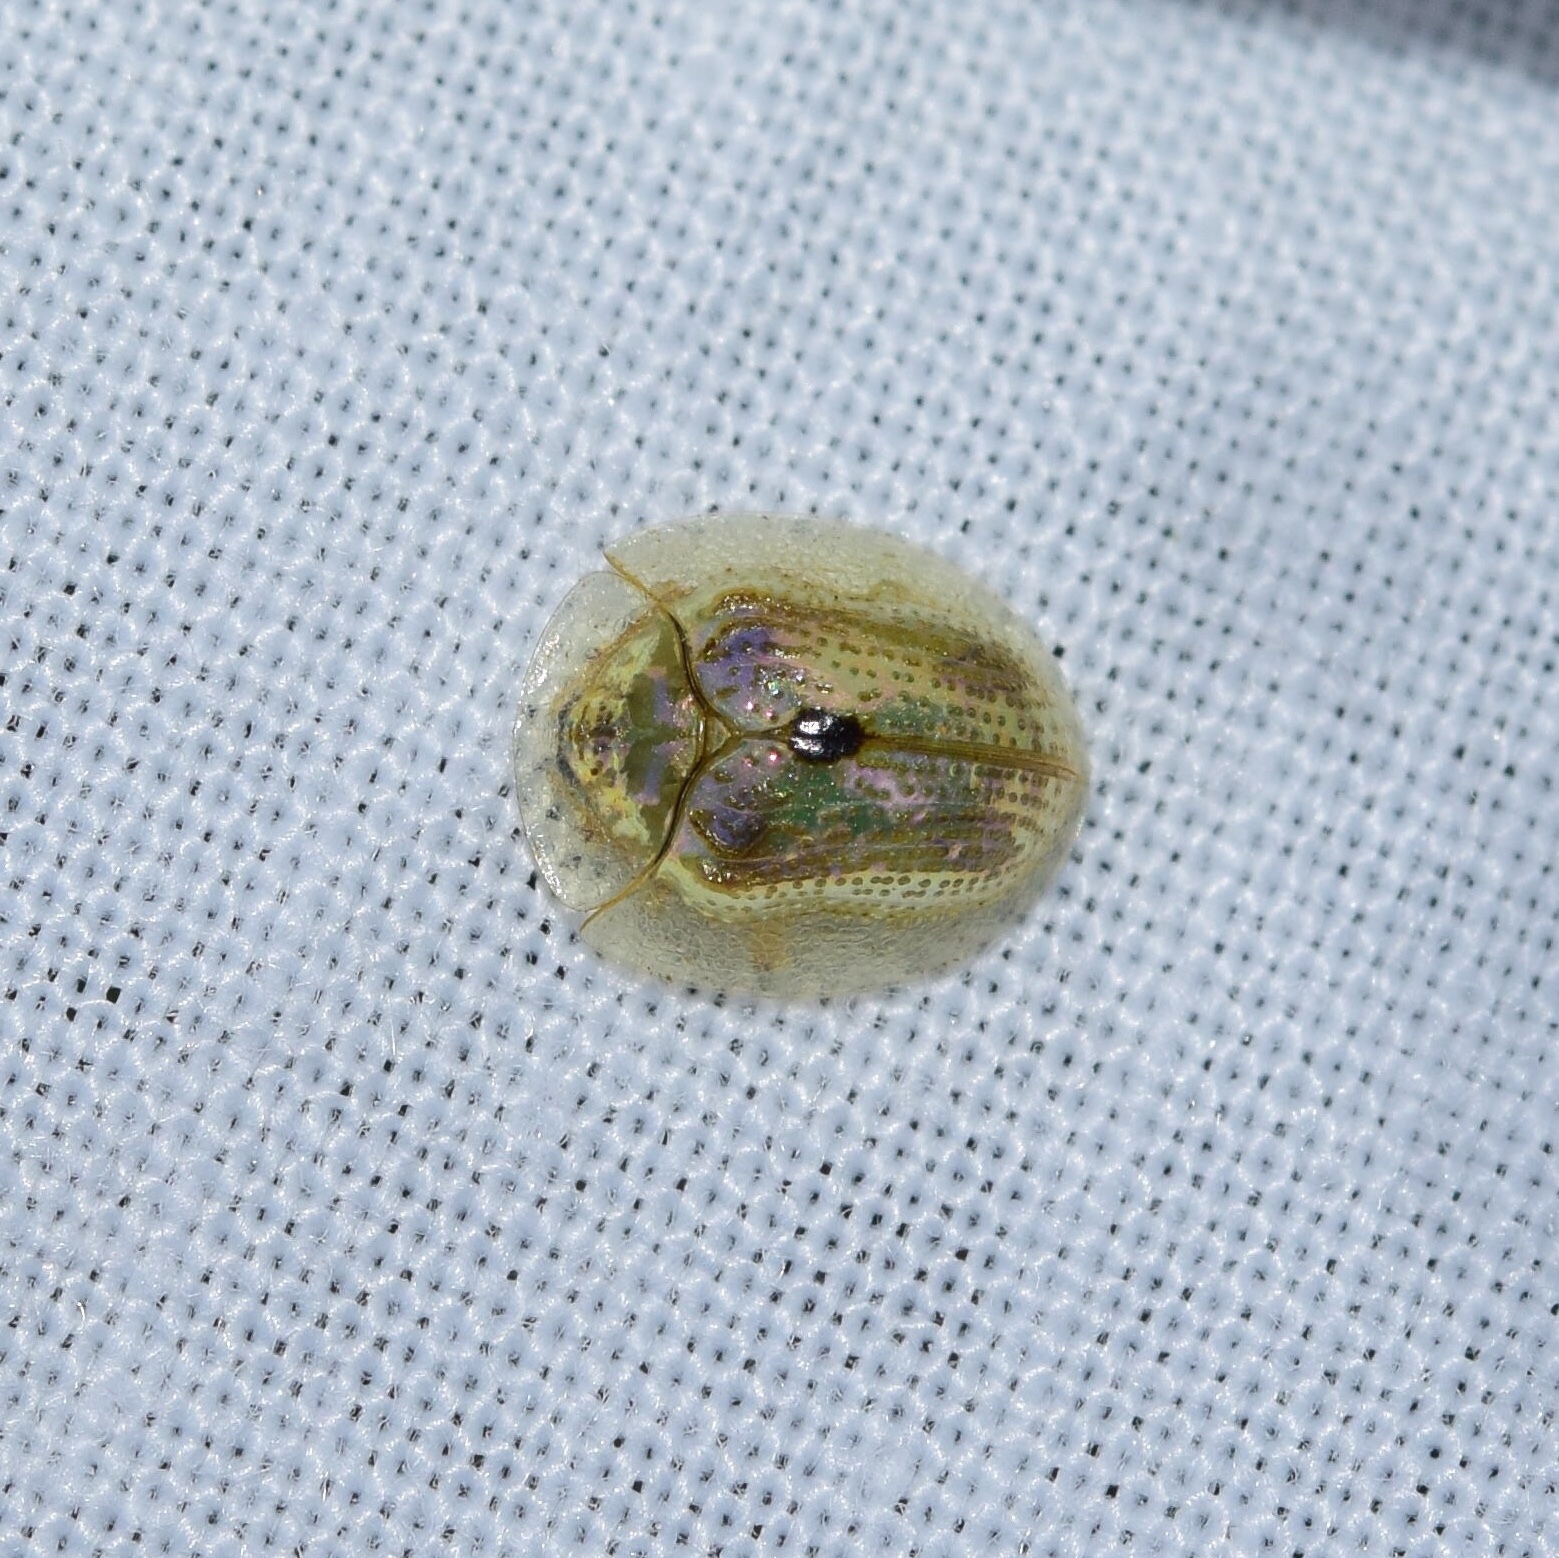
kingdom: Animalia
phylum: Arthropoda
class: Insecta
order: Coleoptera
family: Chrysomelidae
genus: Cassida
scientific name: Cassida unimaculata
